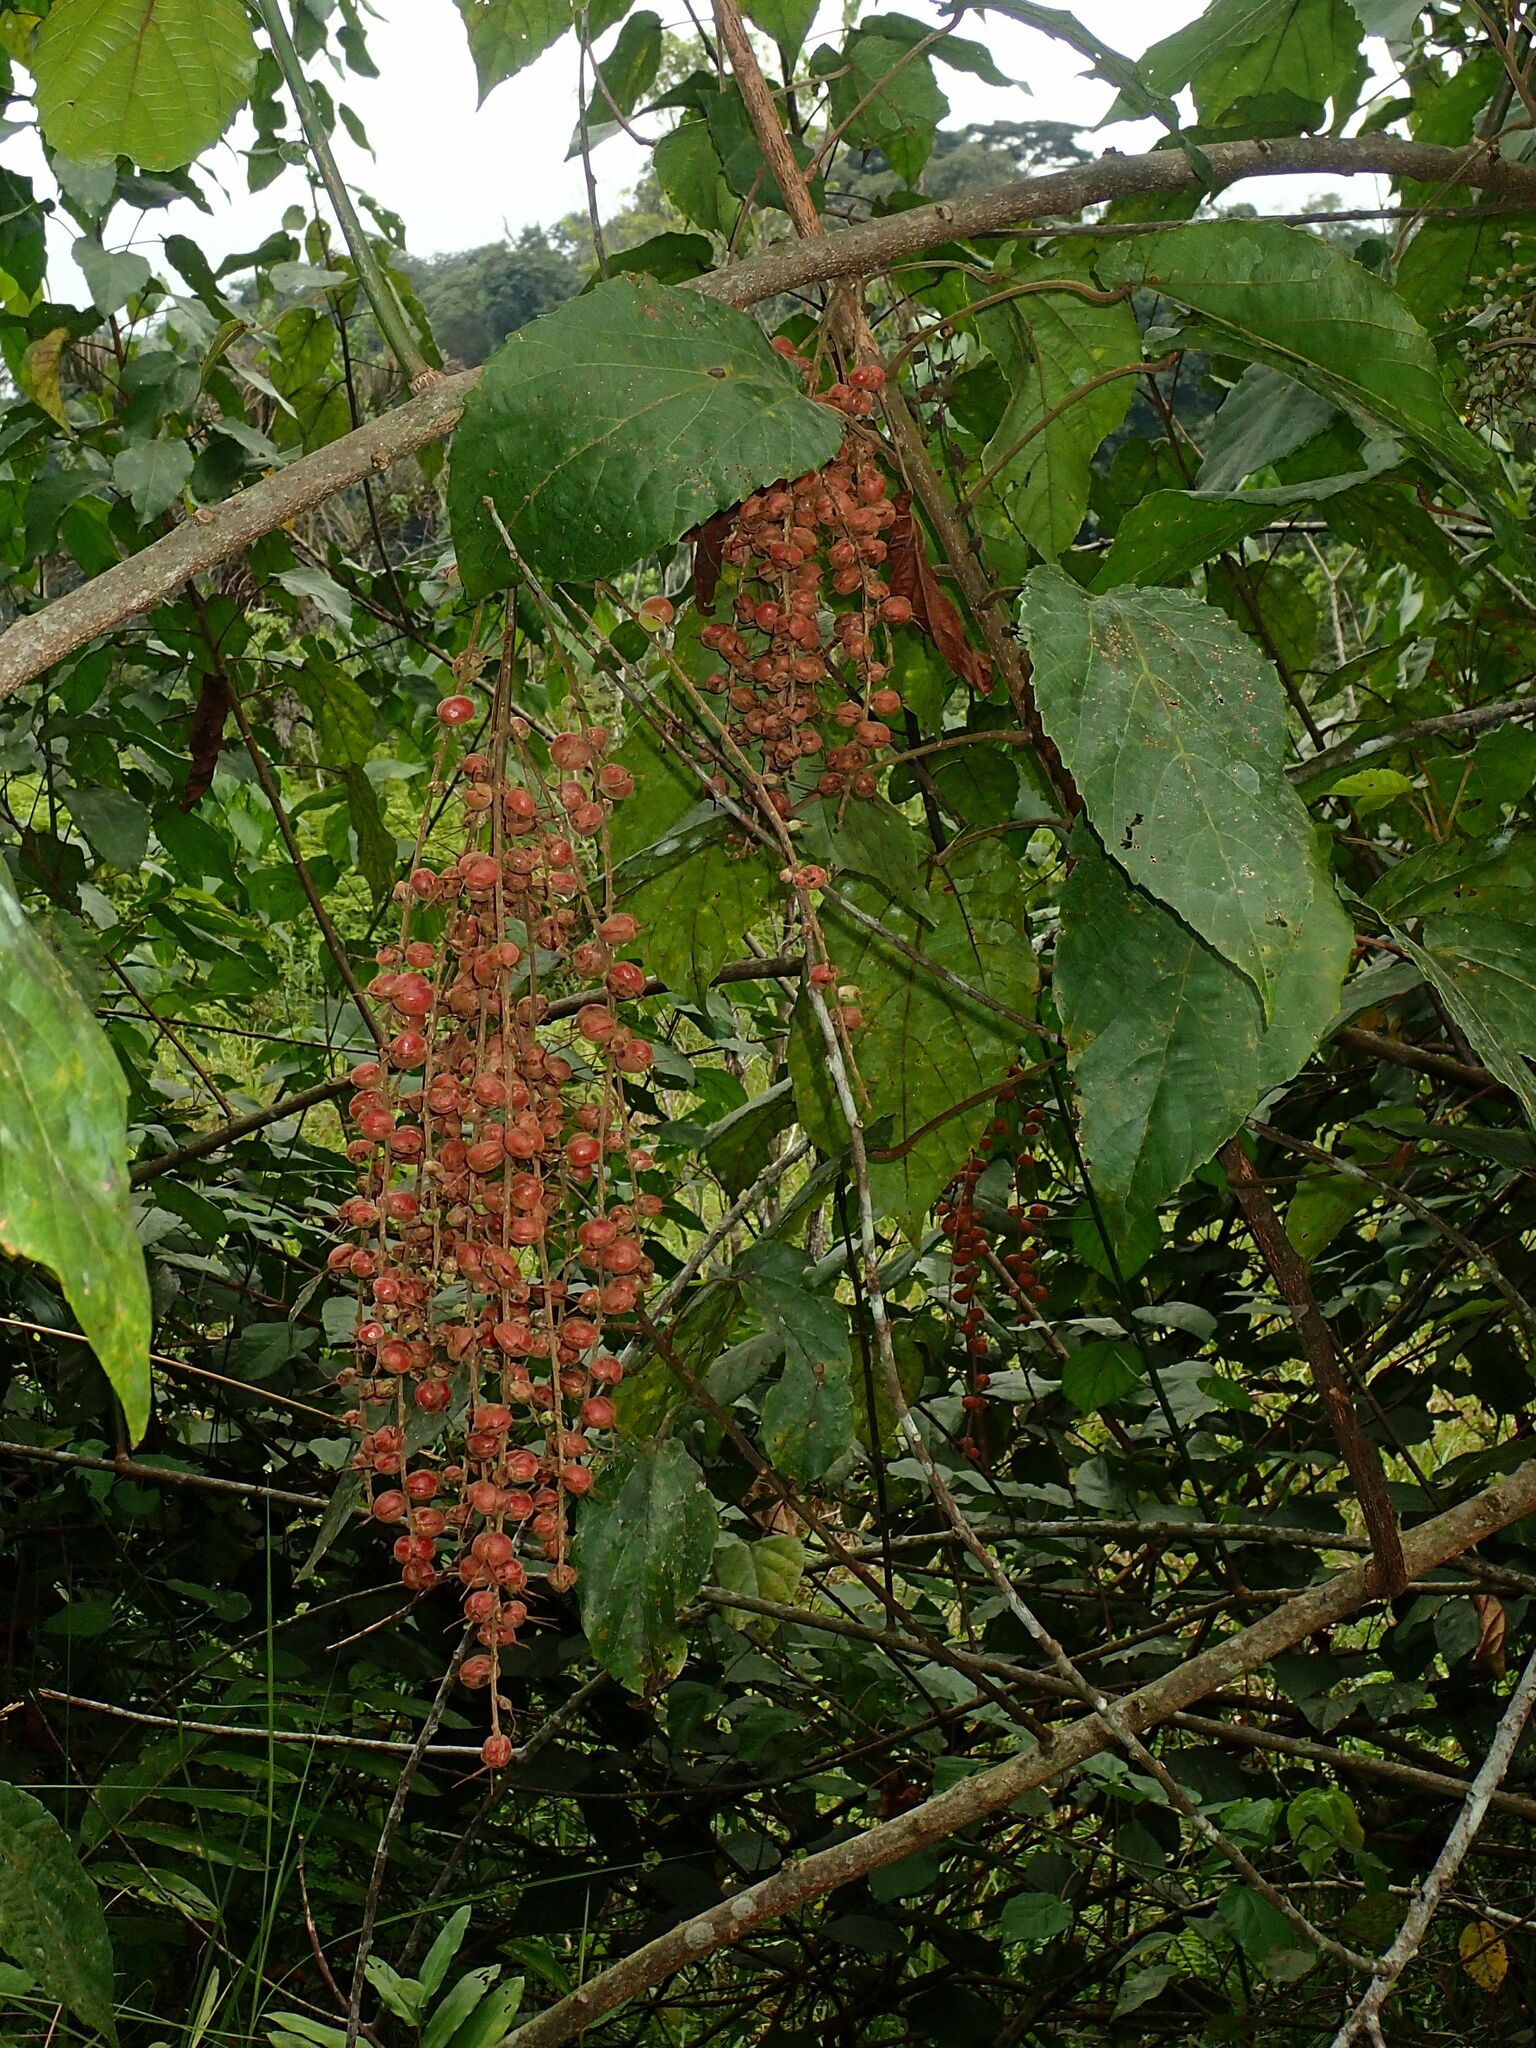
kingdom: Plantae
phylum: Tracheophyta
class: Magnoliopsida
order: Malpighiales
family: Euphorbiaceae
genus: Alchornea
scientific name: Alchornea cordifolia
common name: Christmasbush
